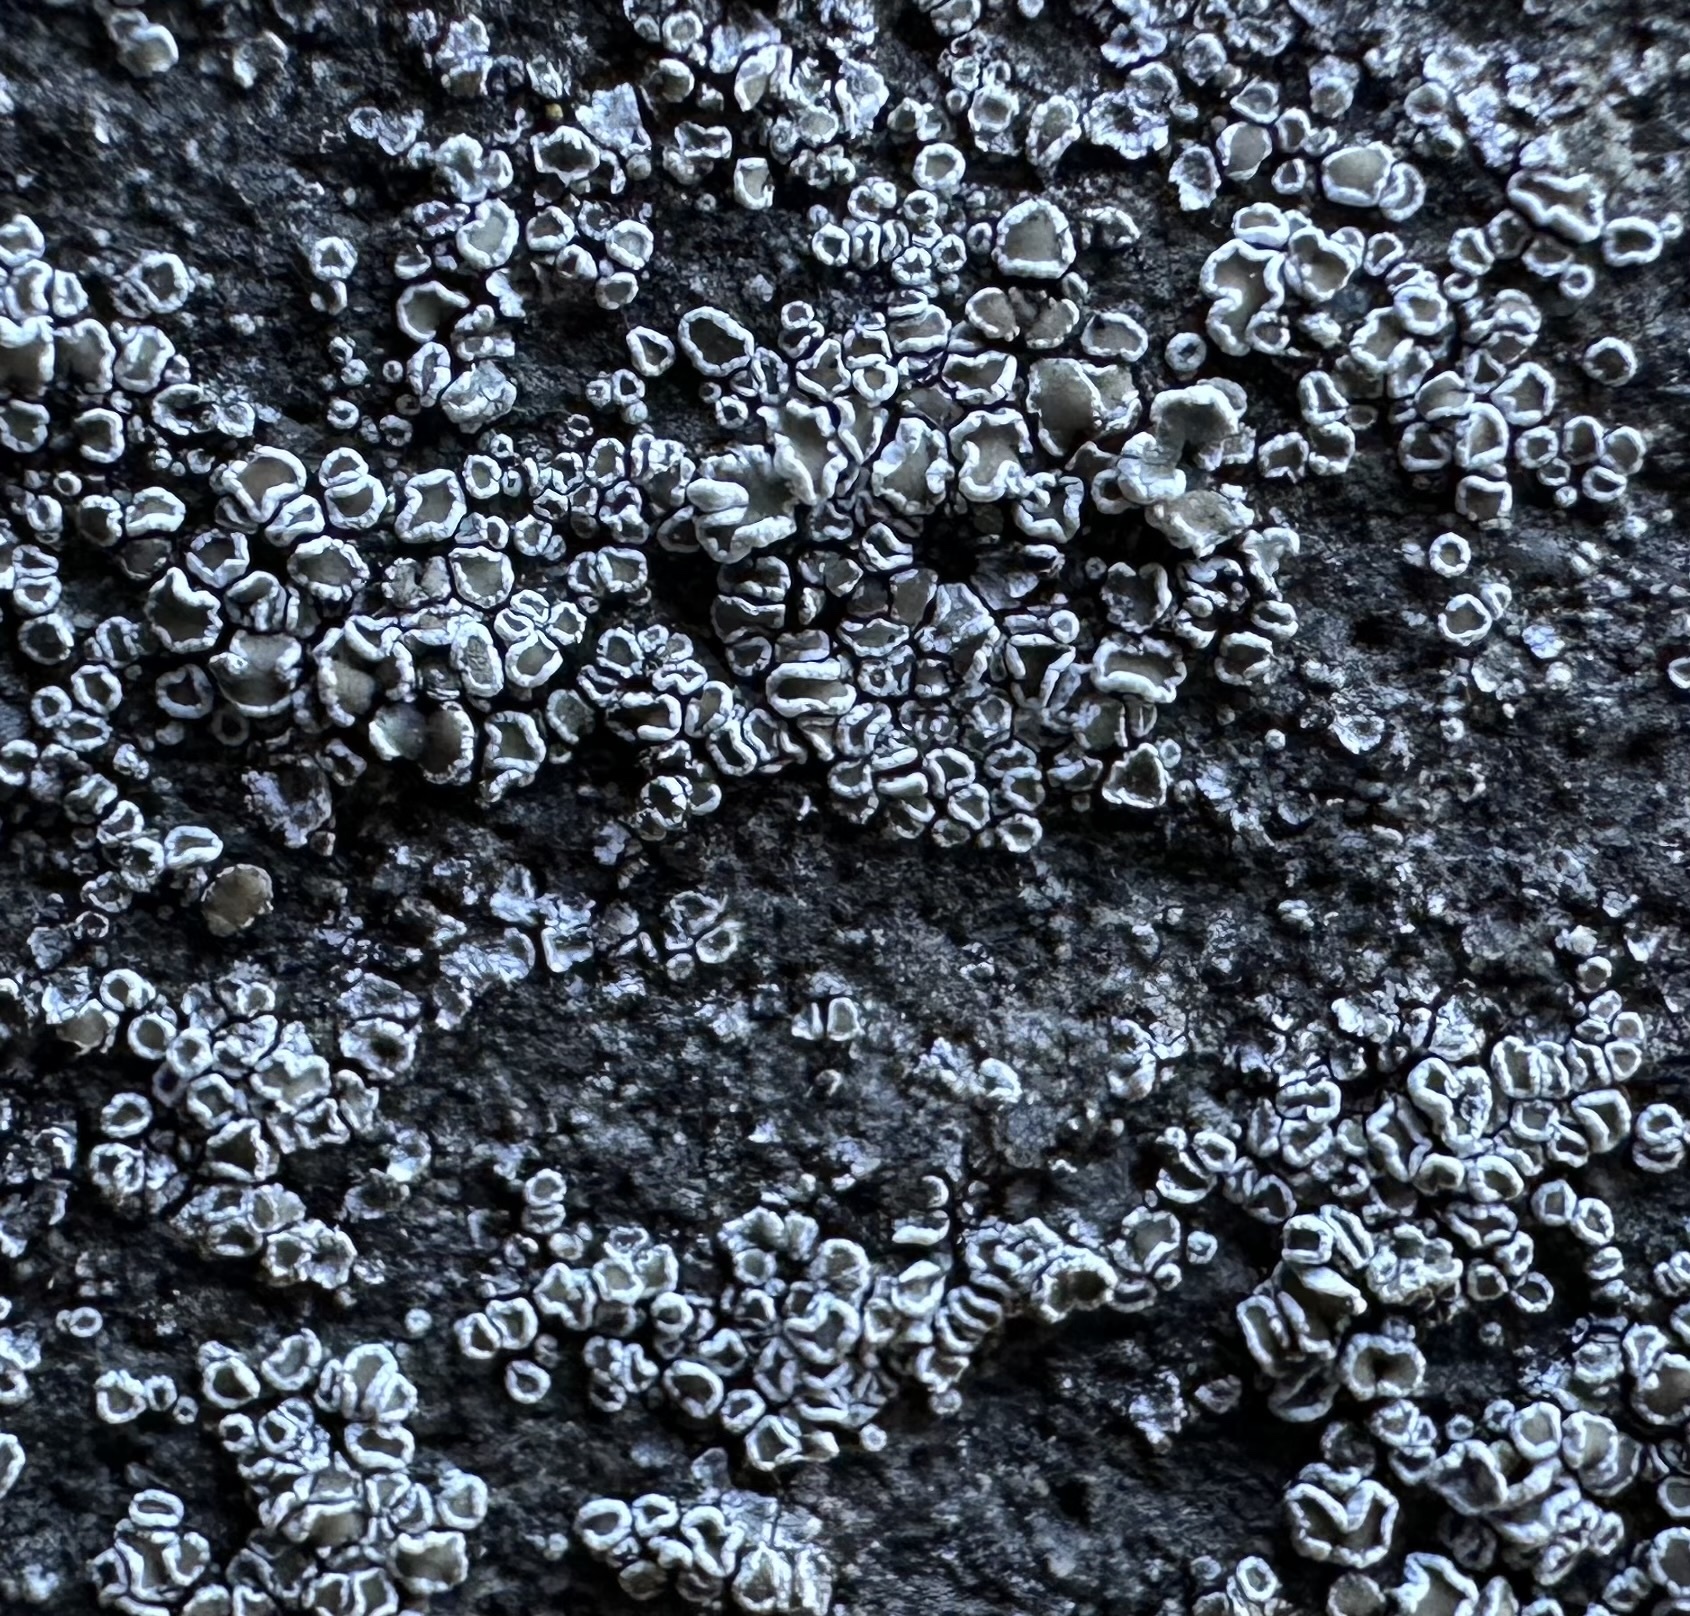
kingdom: Fungi
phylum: Ascomycota
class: Lecanoromycetes
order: Lecanorales
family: Lecanoraceae
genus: Polyozosia
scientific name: Polyozosia dispersa
